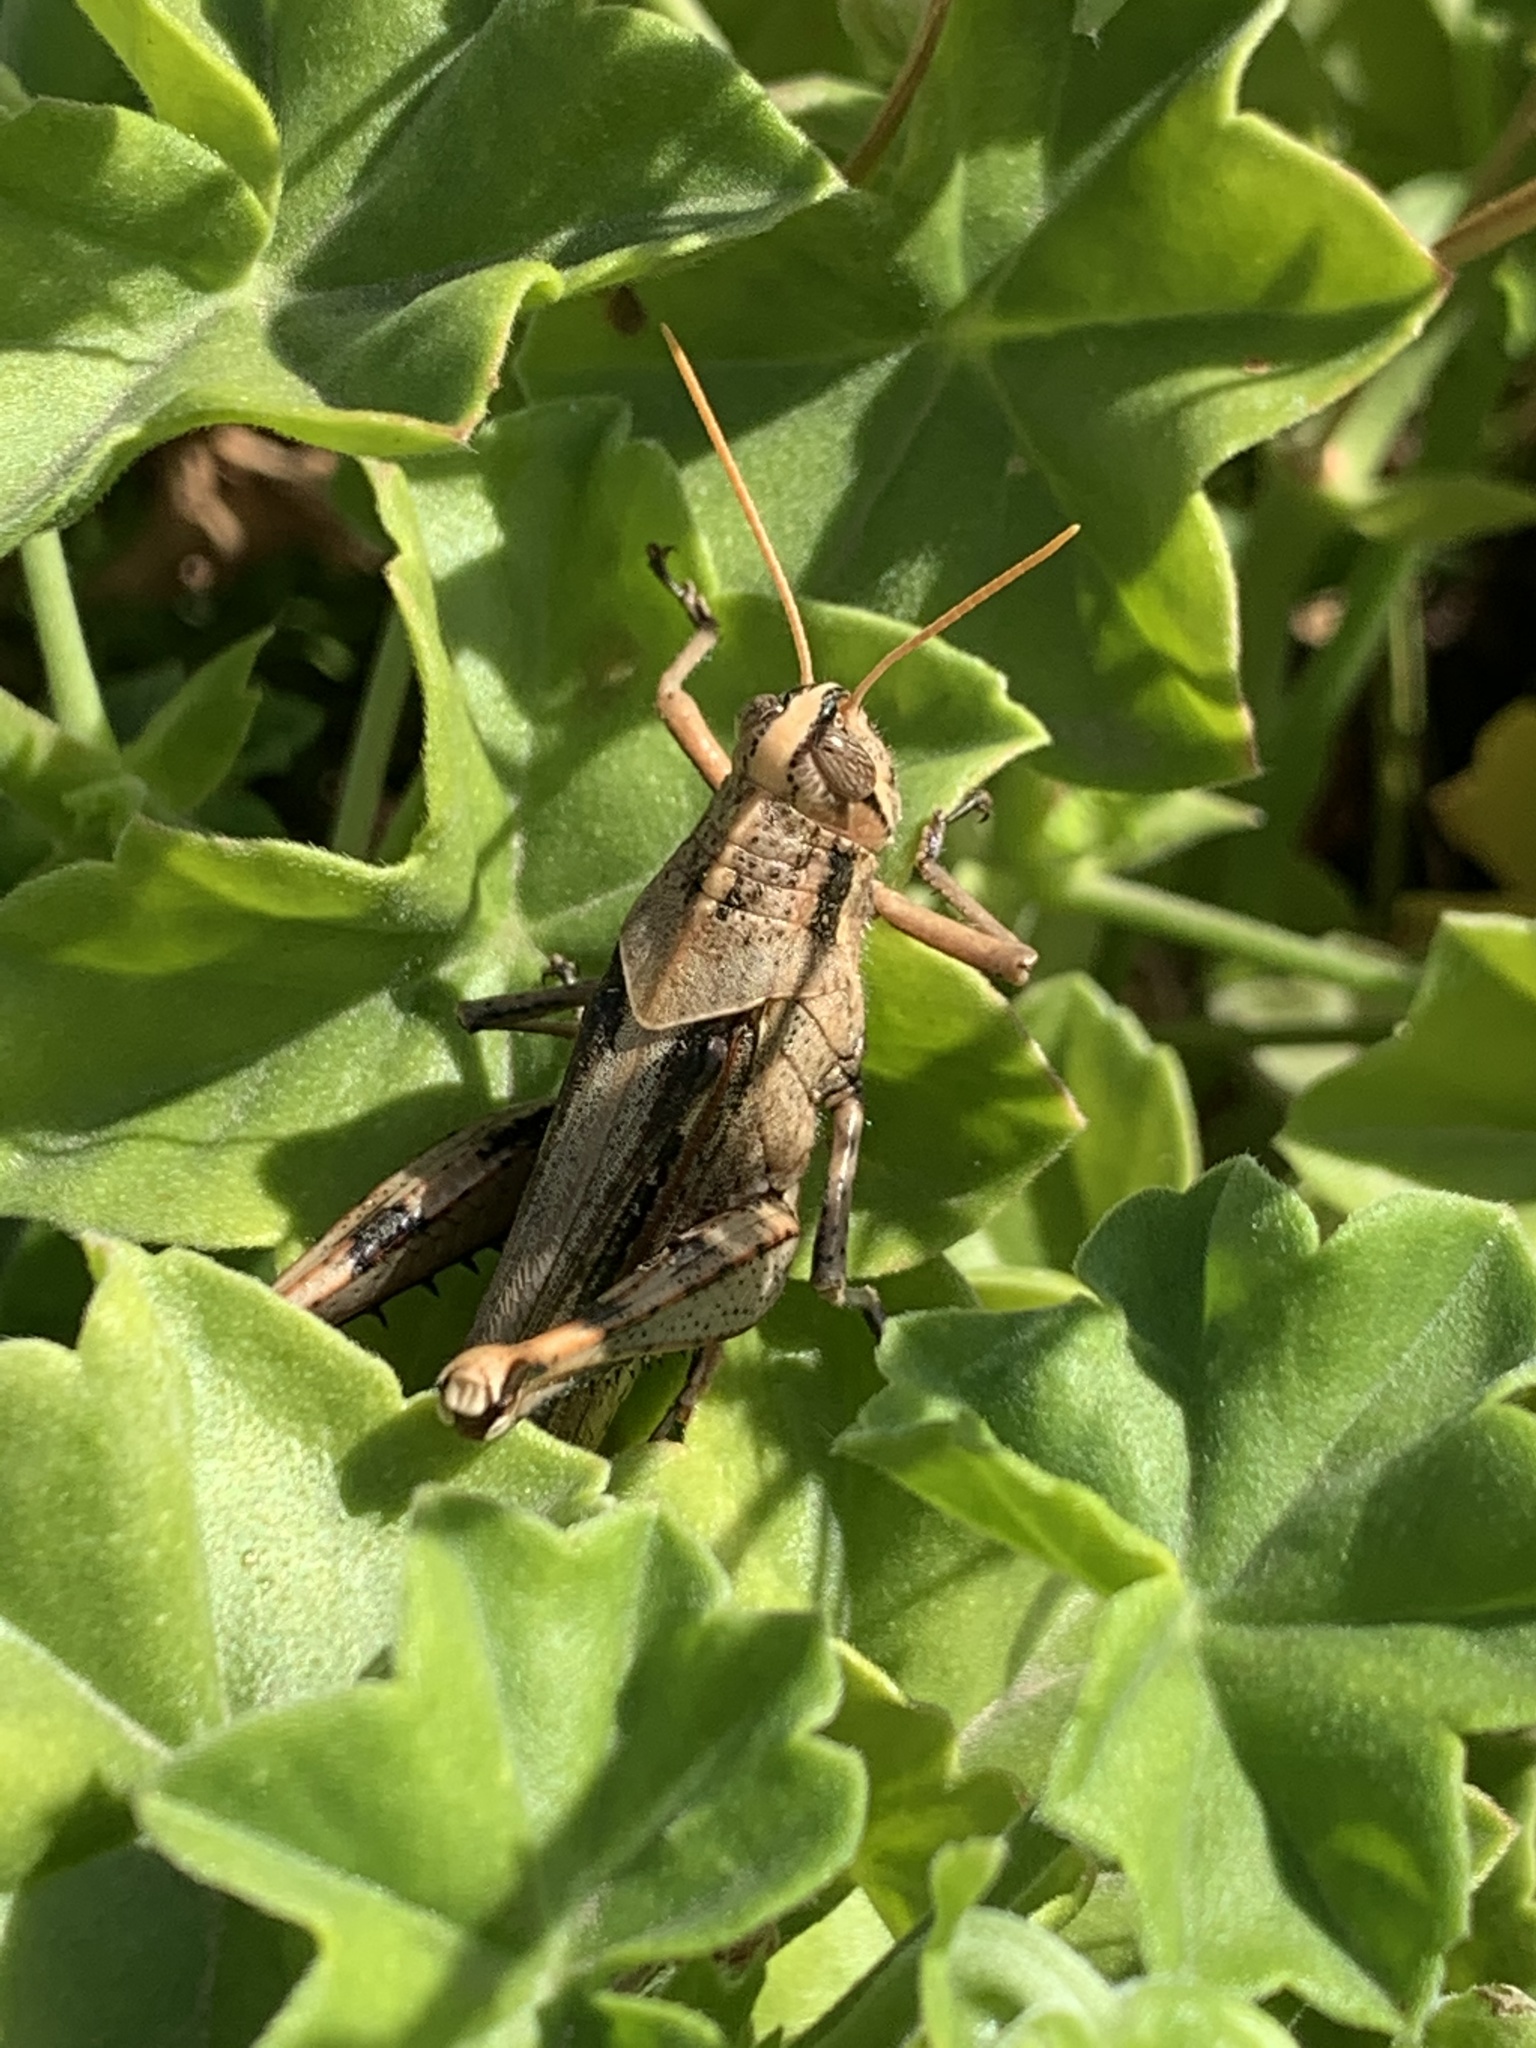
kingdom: Animalia
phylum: Arthropoda
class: Insecta
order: Orthoptera
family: Acrididae
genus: Schistocerca
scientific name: Schistocerca nitens
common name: Vagrant grasshopper
